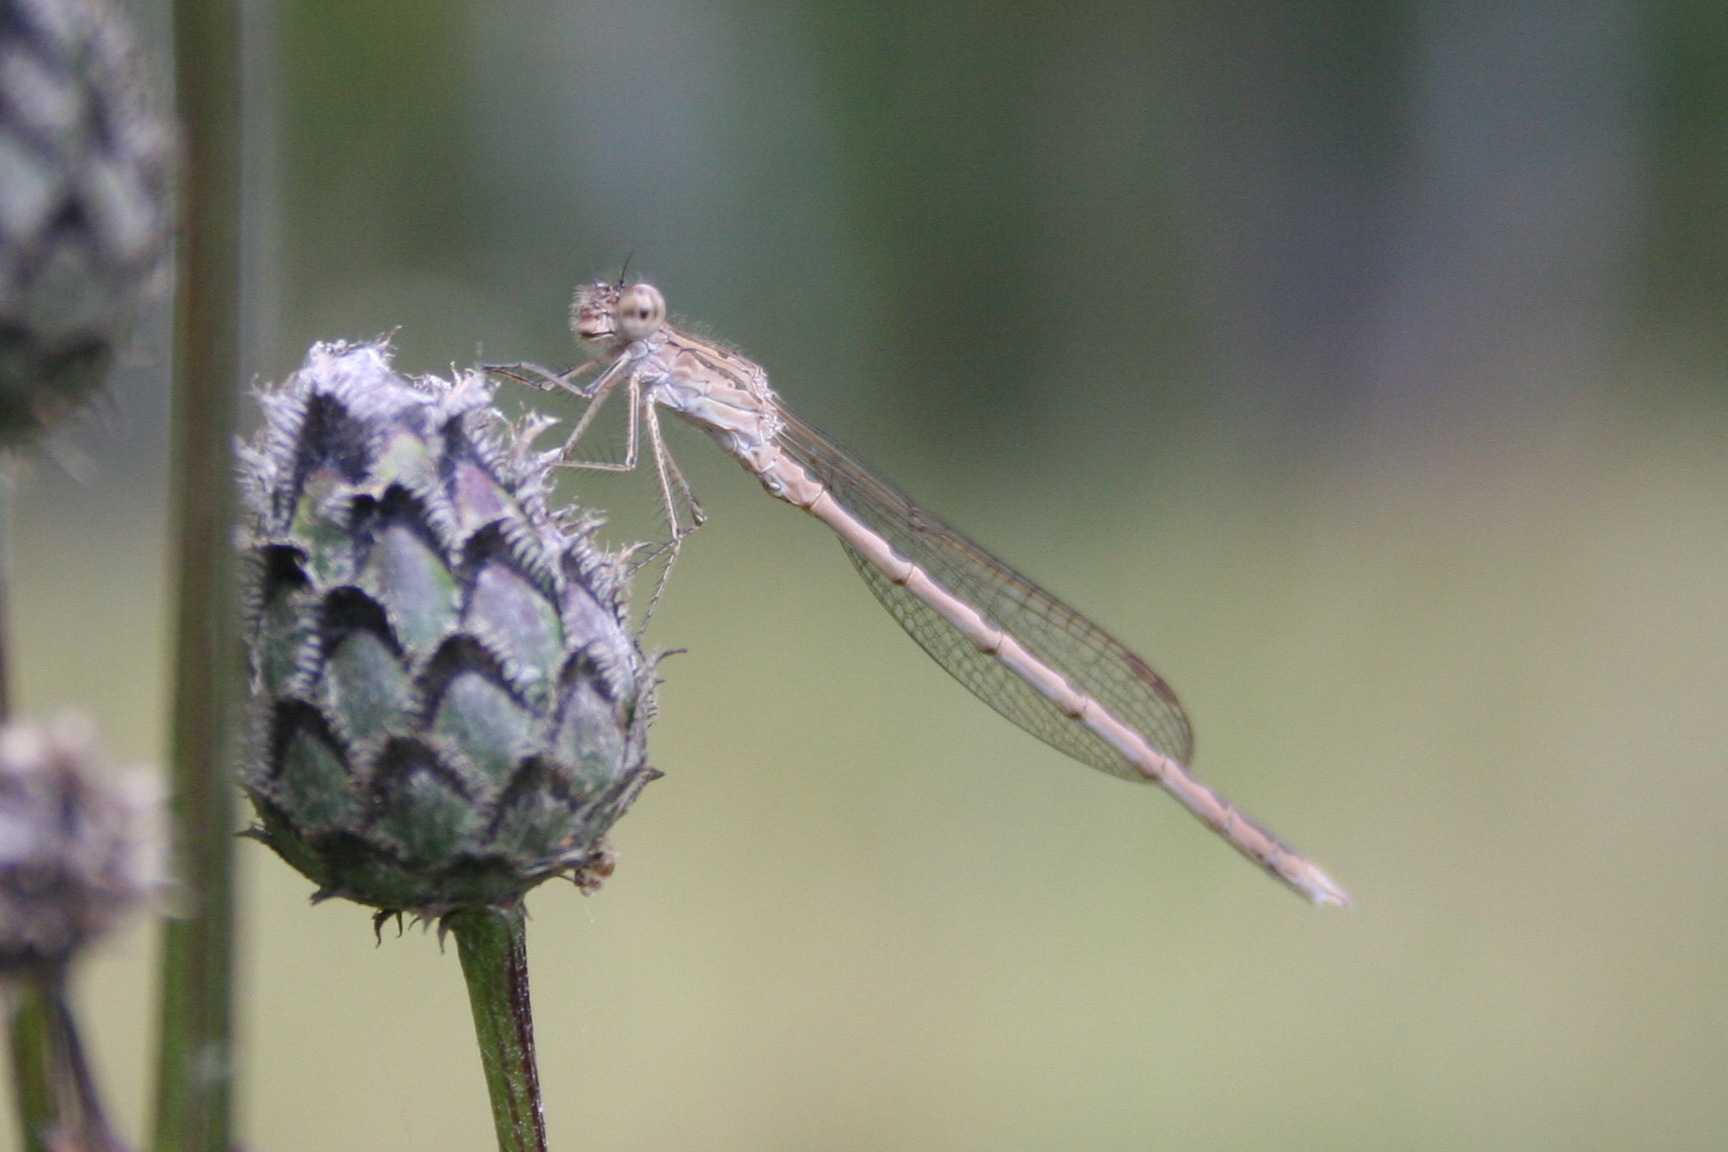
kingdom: Animalia
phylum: Arthropoda
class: Insecta
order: Odonata
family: Lestidae
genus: Sympecma
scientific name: Sympecma paedisca
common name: Siberian winter damsel
